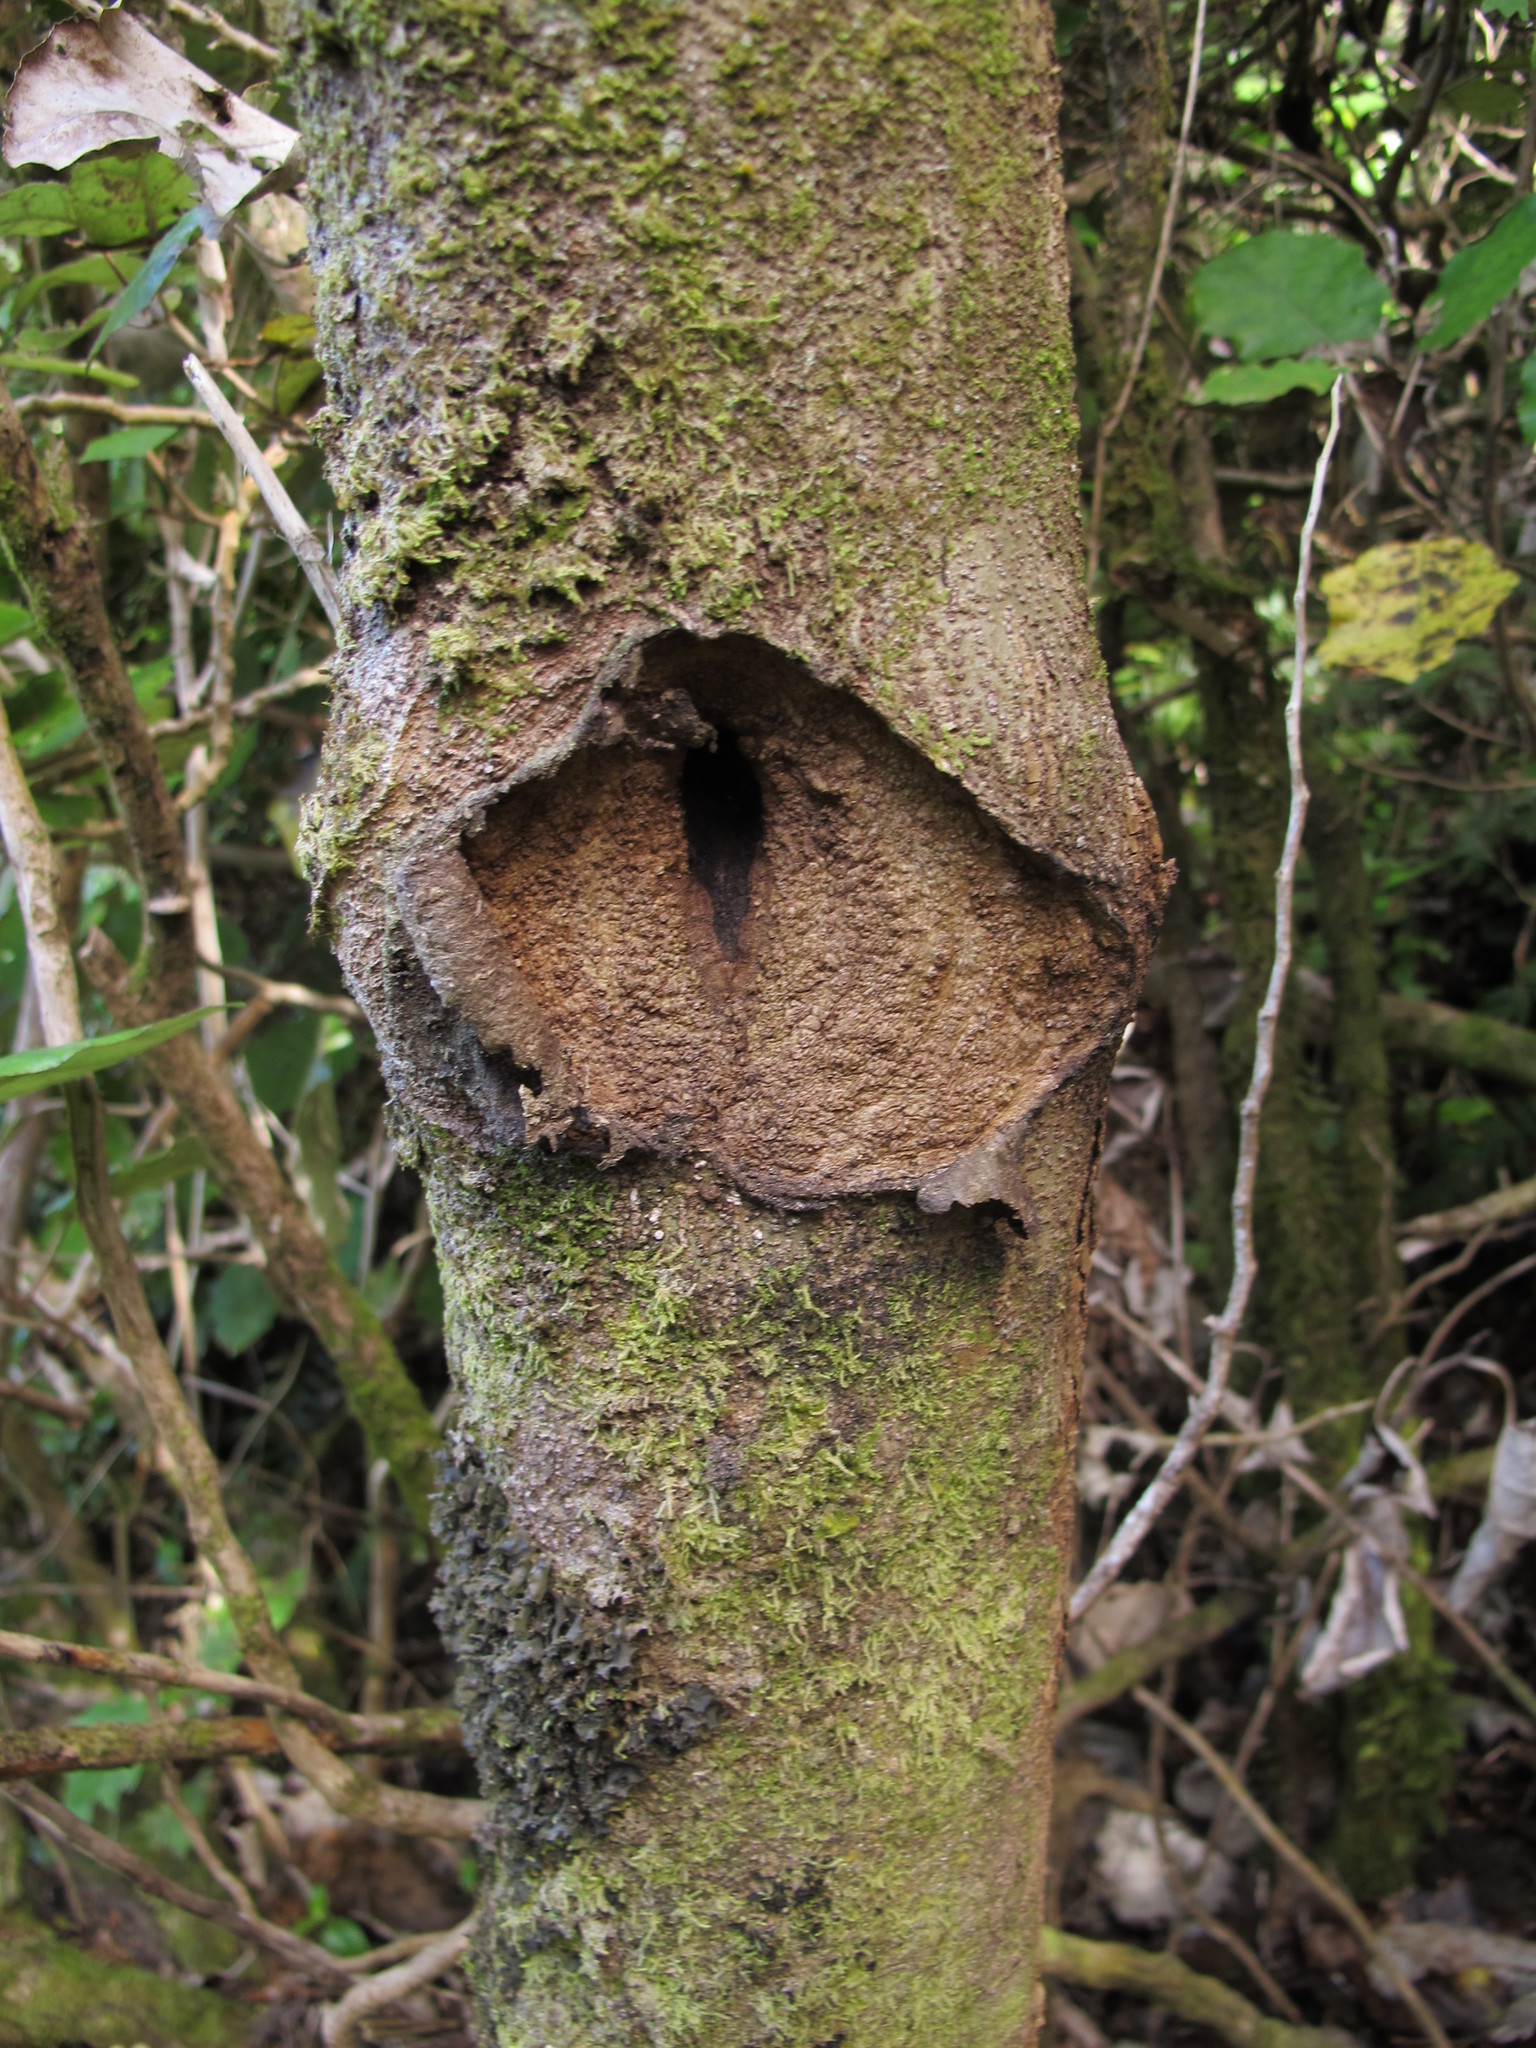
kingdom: Animalia
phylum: Arthropoda
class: Insecta
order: Lepidoptera
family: Hepialidae
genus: Aenetus
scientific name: Aenetus virescens
